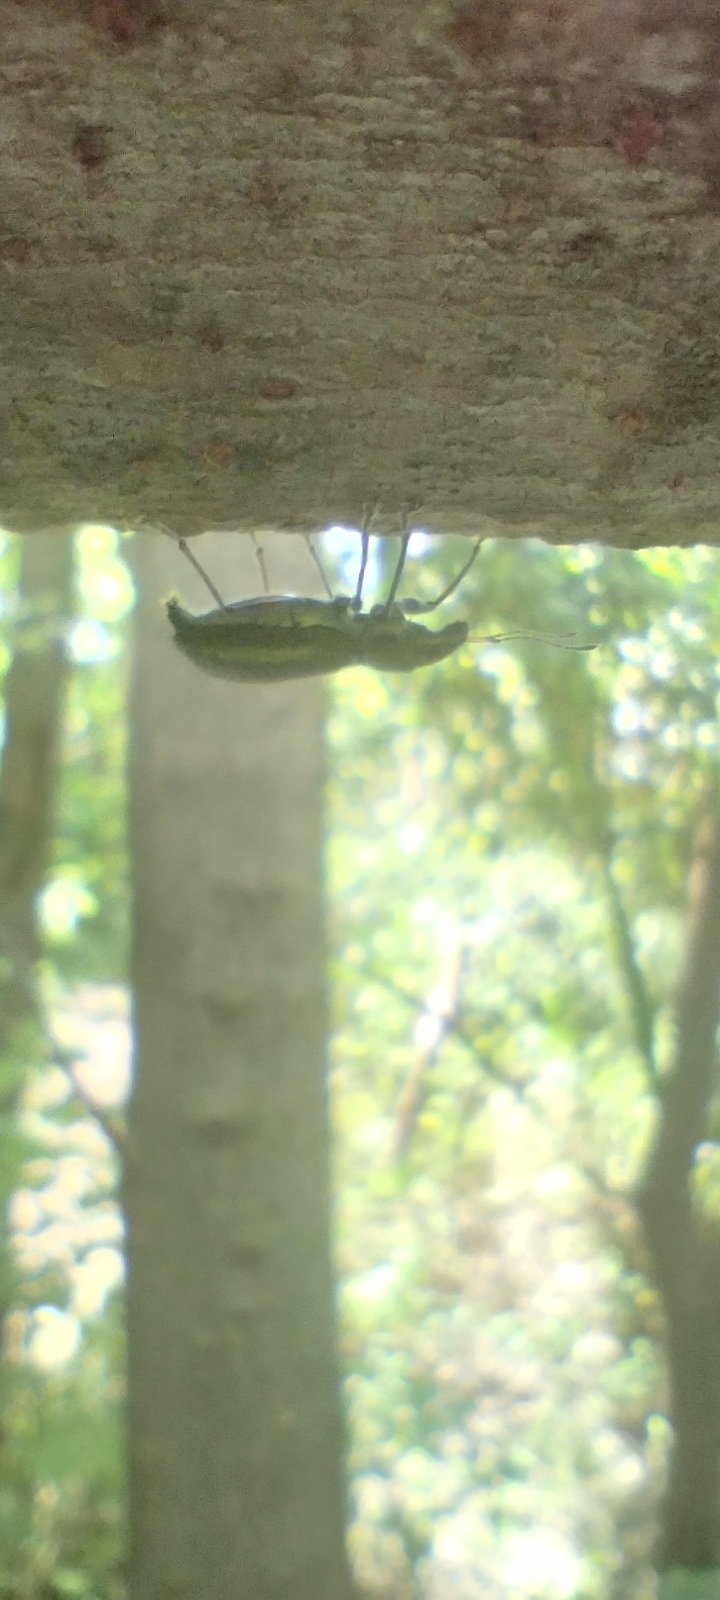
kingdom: Animalia
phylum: Arthropoda
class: Insecta
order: Coleoptera
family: Curculionidae
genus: Naupactus
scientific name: Naupactus auricinctus
